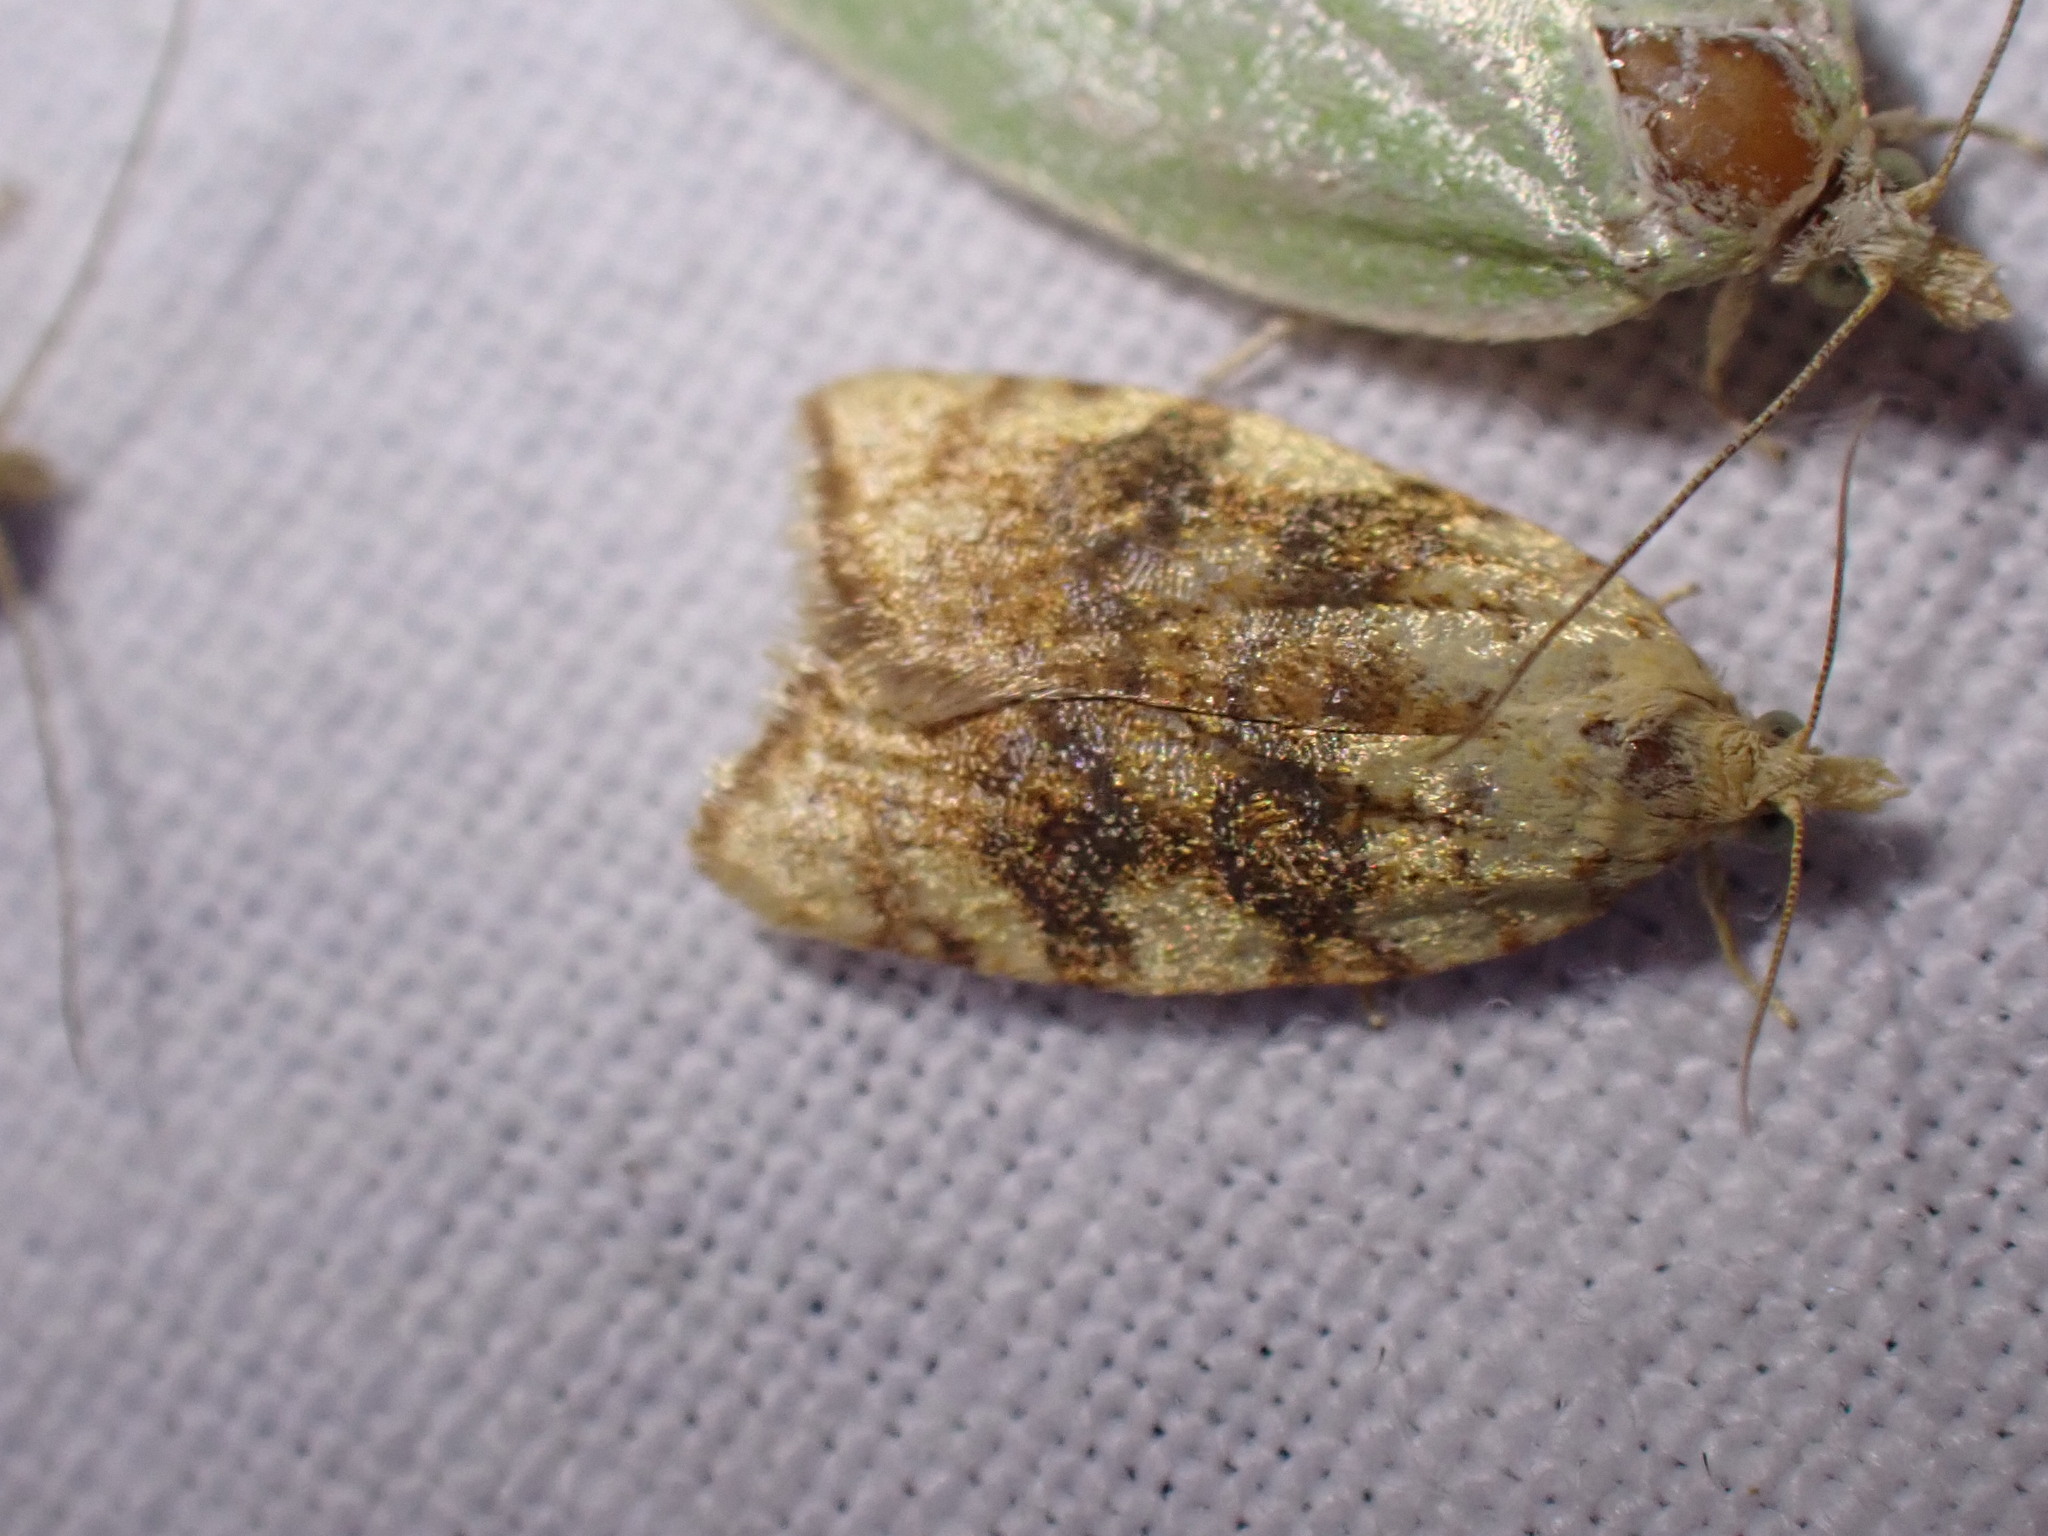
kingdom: Animalia
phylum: Arthropoda
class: Insecta
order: Lepidoptera
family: Tortricidae
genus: Aleimma
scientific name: Aleimma loeflingiana
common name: Yellow oak button
